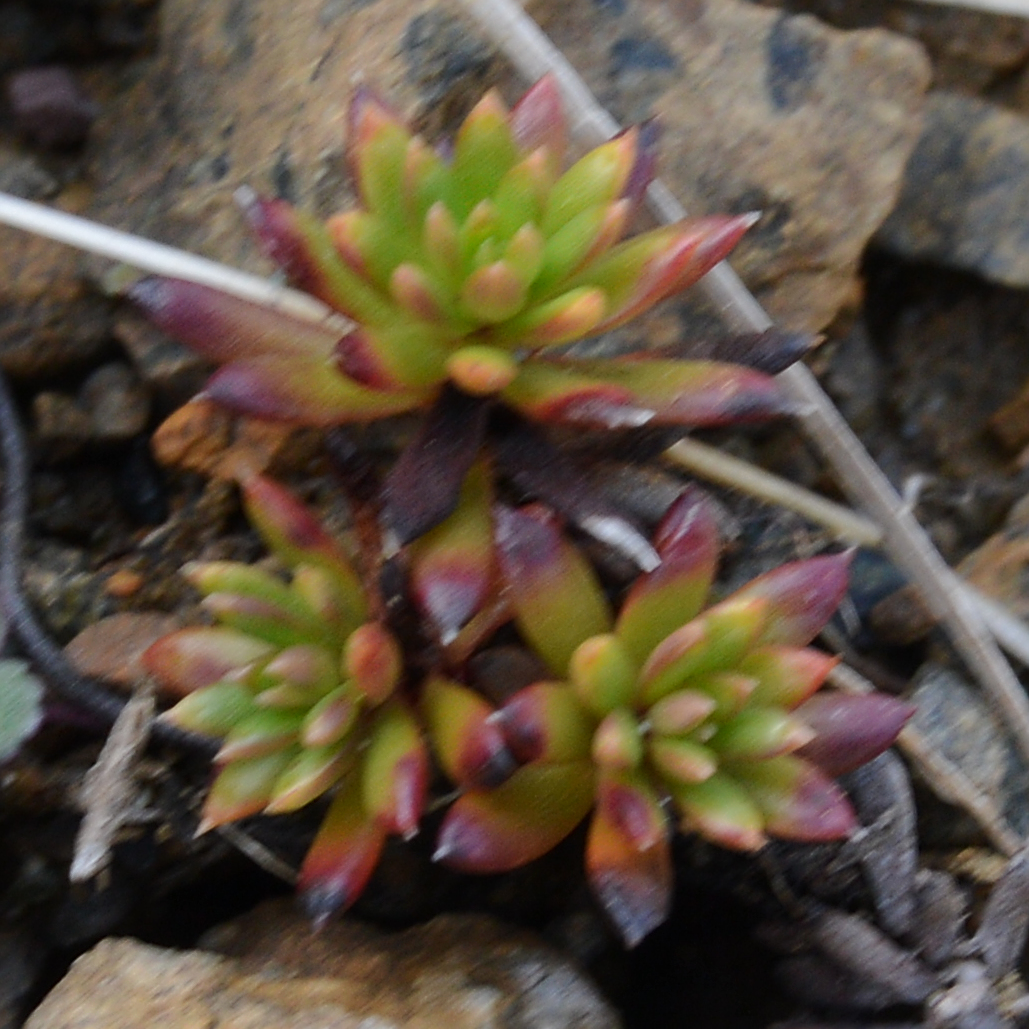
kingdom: Plantae
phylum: Tracheophyta
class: Magnoliopsida
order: Saxifragales
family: Saxifragaceae
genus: Saxifraga
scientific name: Saxifraga aizoides
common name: Yellow mountain saxifrage
